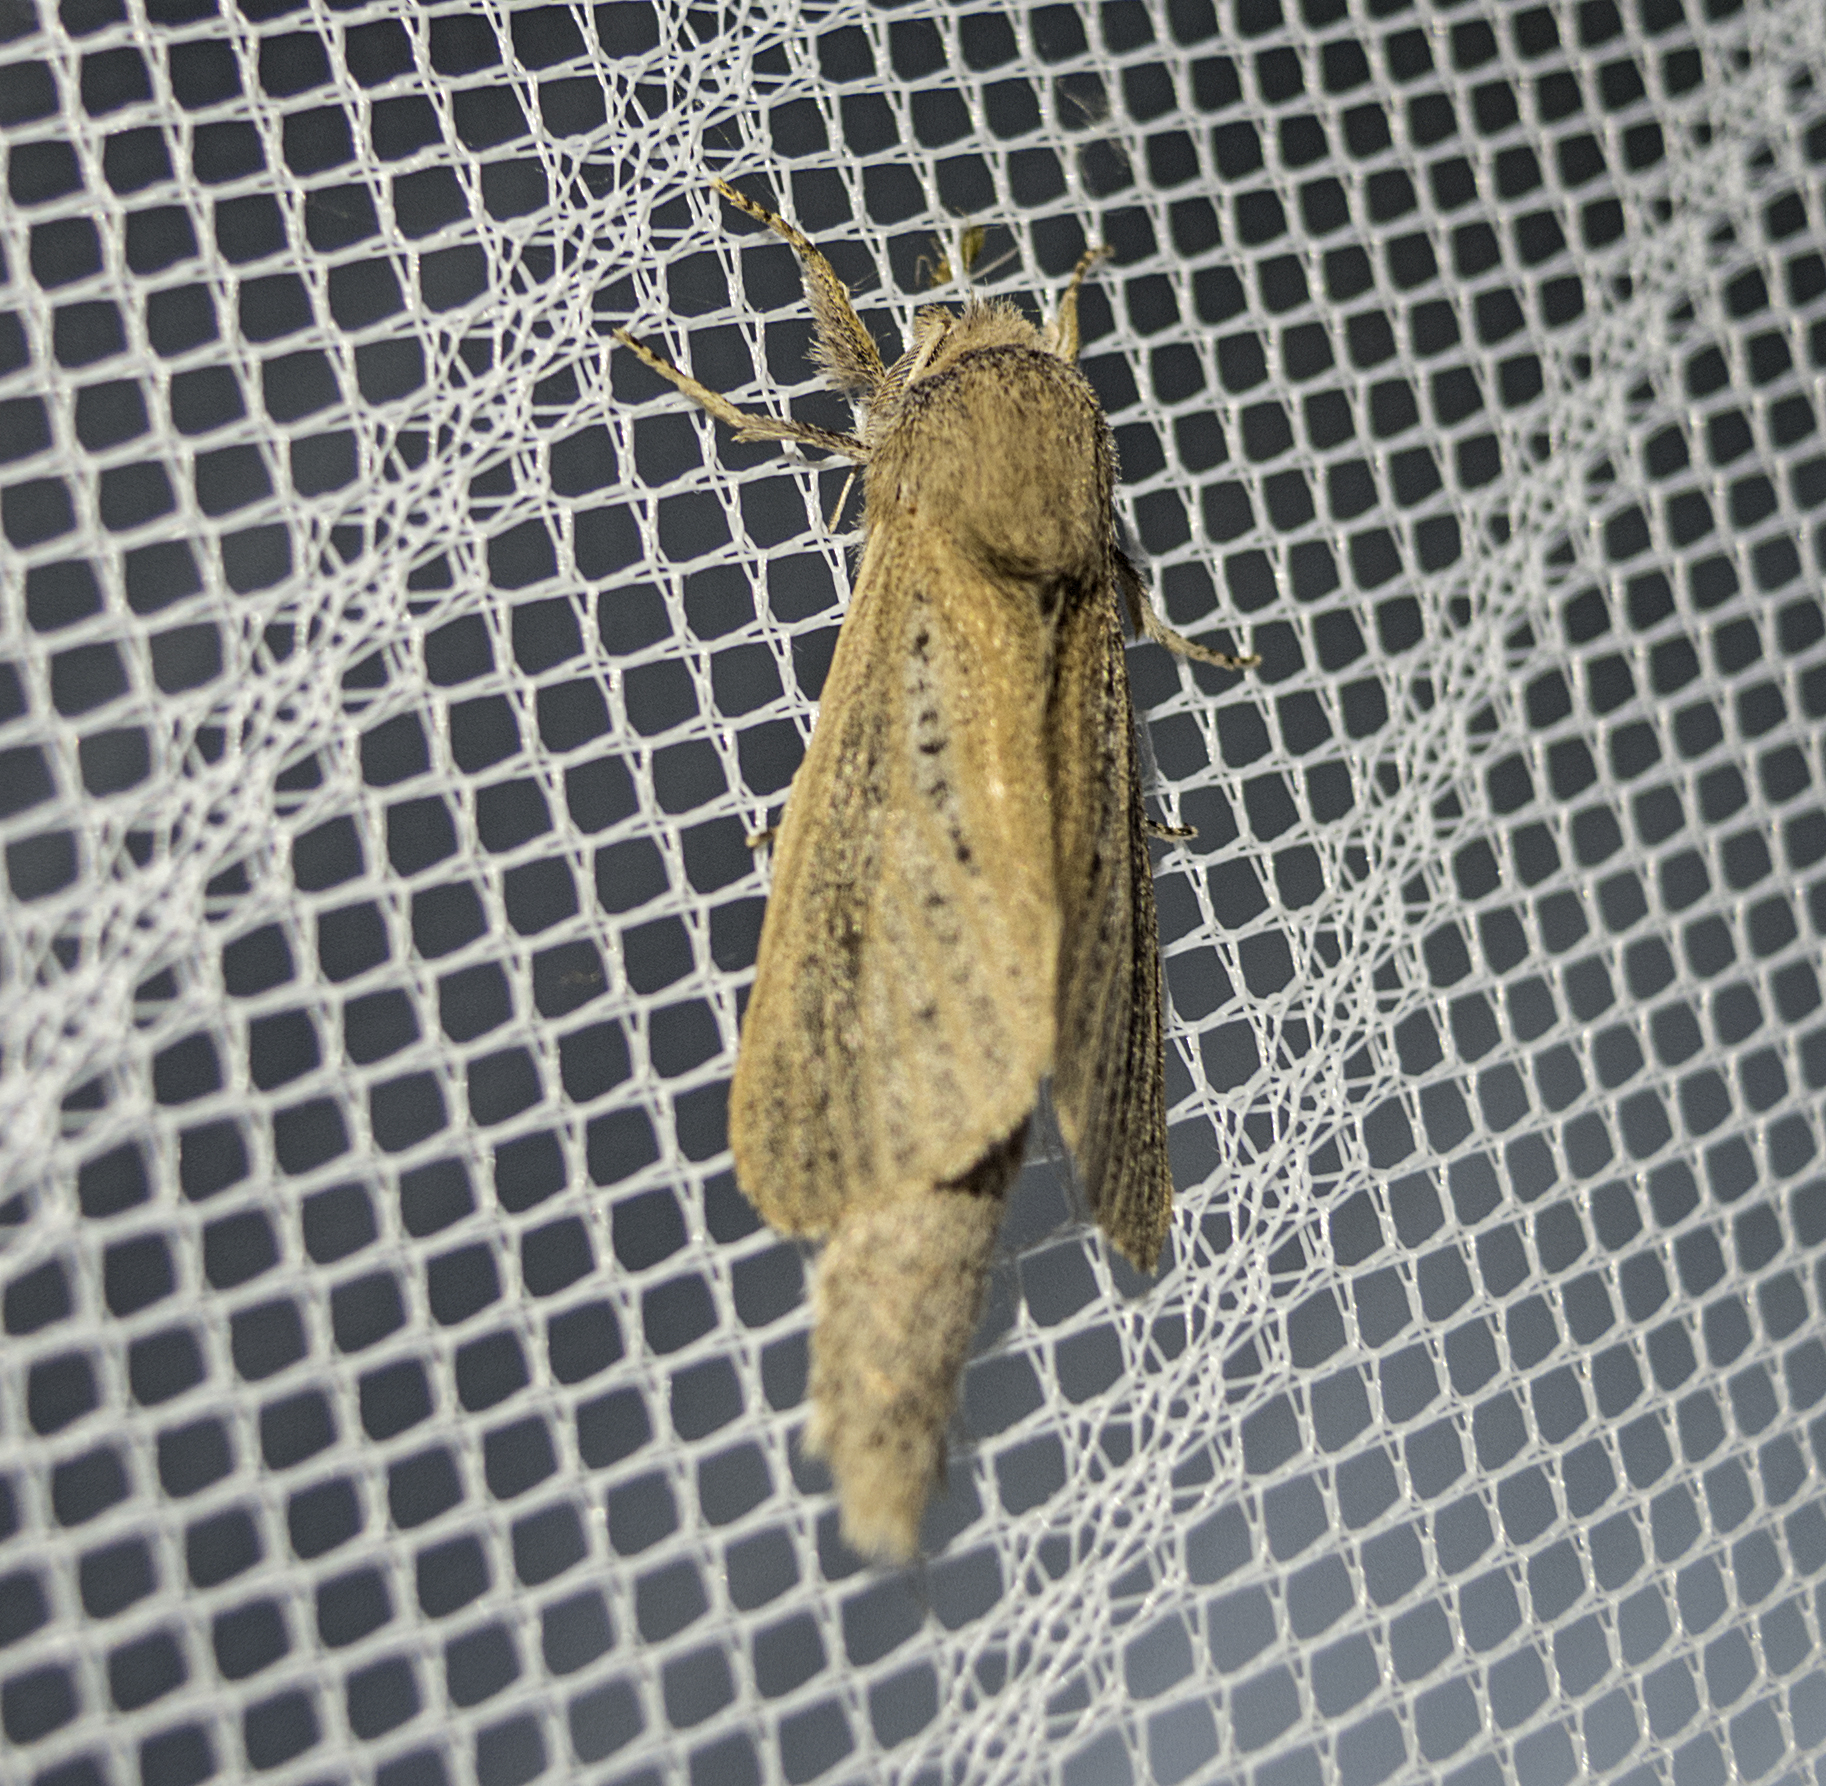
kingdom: Animalia
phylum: Arthropoda
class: Insecta
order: Lepidoptera
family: Cossidae
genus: Phragmataecia
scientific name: Phragmataecia castaneae
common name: Reed leopard
